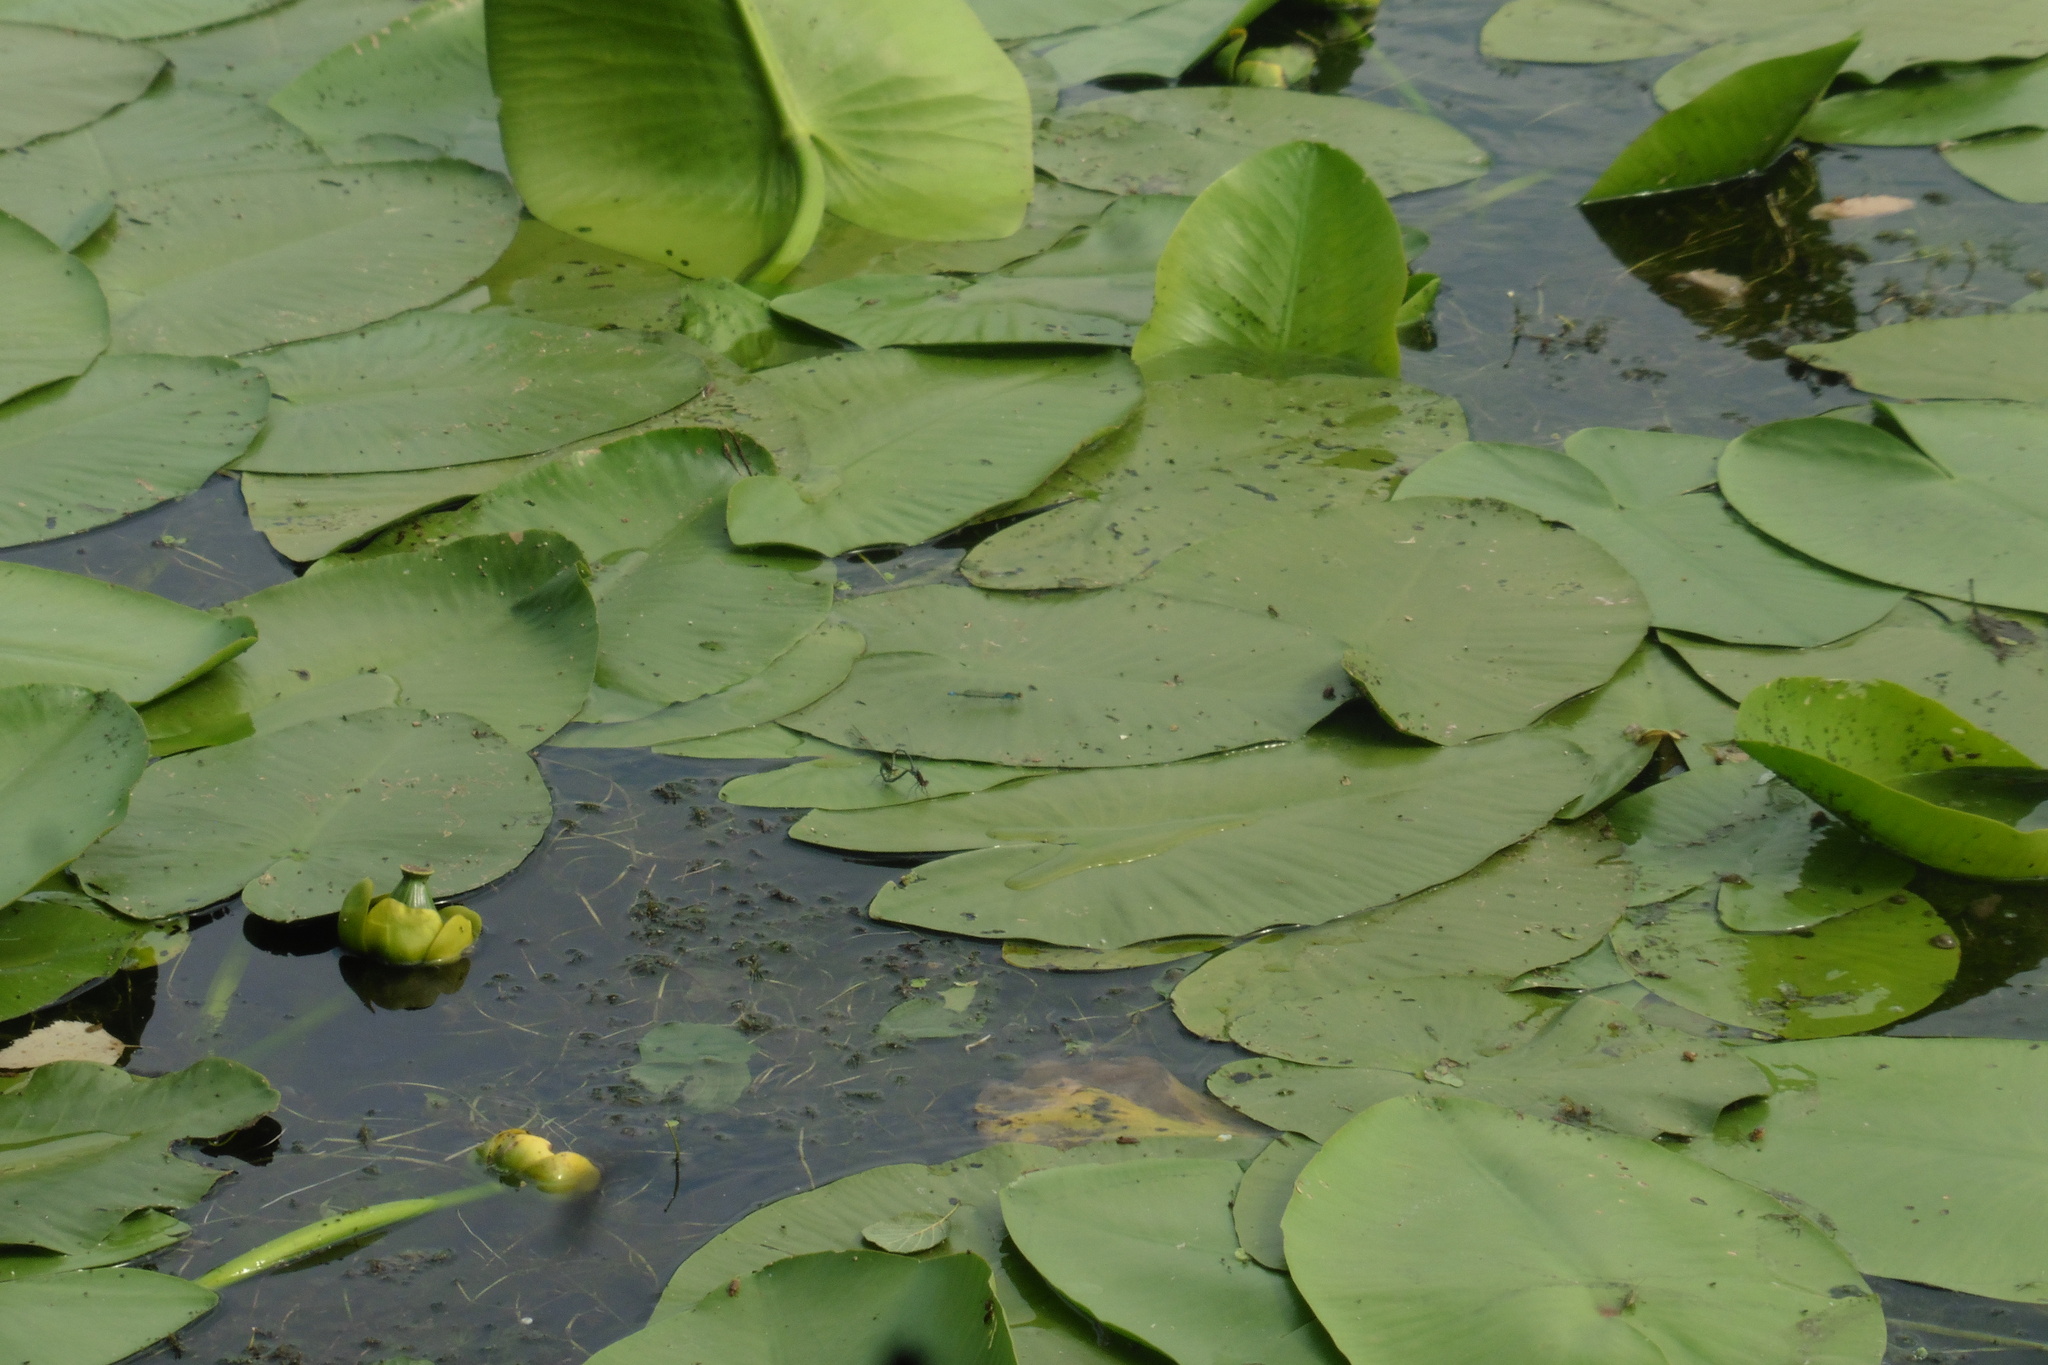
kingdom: Plantae
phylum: Tracheophyta
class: Magnoliopsida
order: Nymphaeales
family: Nymphaeaceae
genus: Nuphar
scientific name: Nuphar lutea
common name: Yellow water-lily
